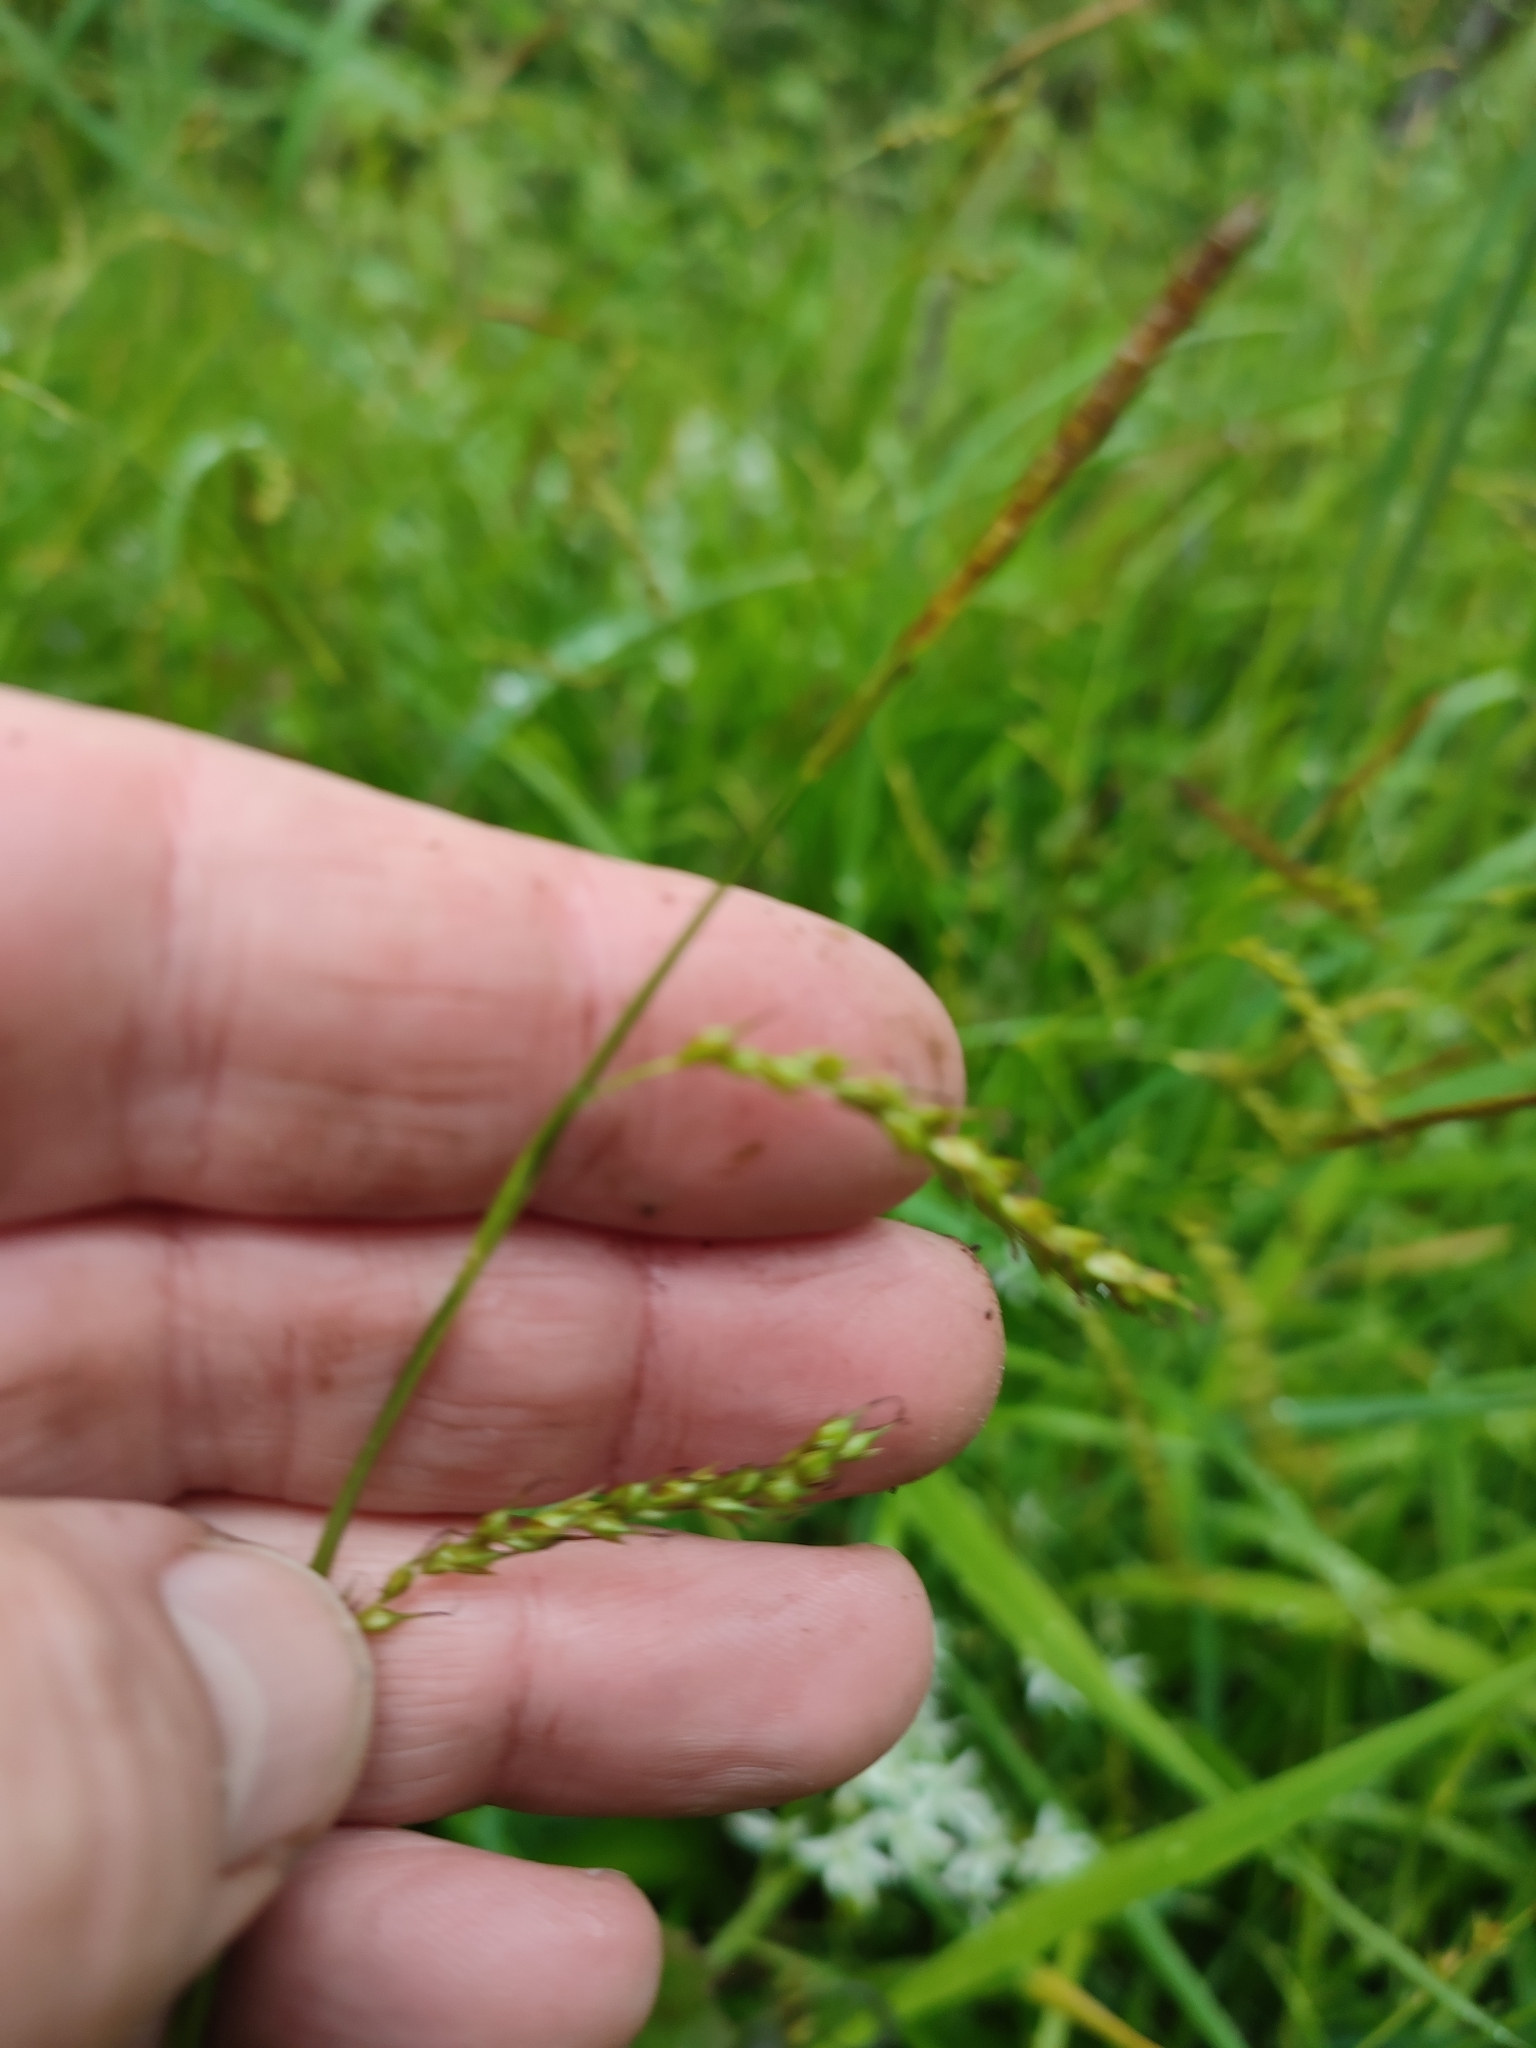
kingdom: Plantae
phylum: Tracheophyta
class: Liliopsida
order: Poales
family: Cyperaceae
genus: Carex
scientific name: Carex sylvatica
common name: Wood-sedge
